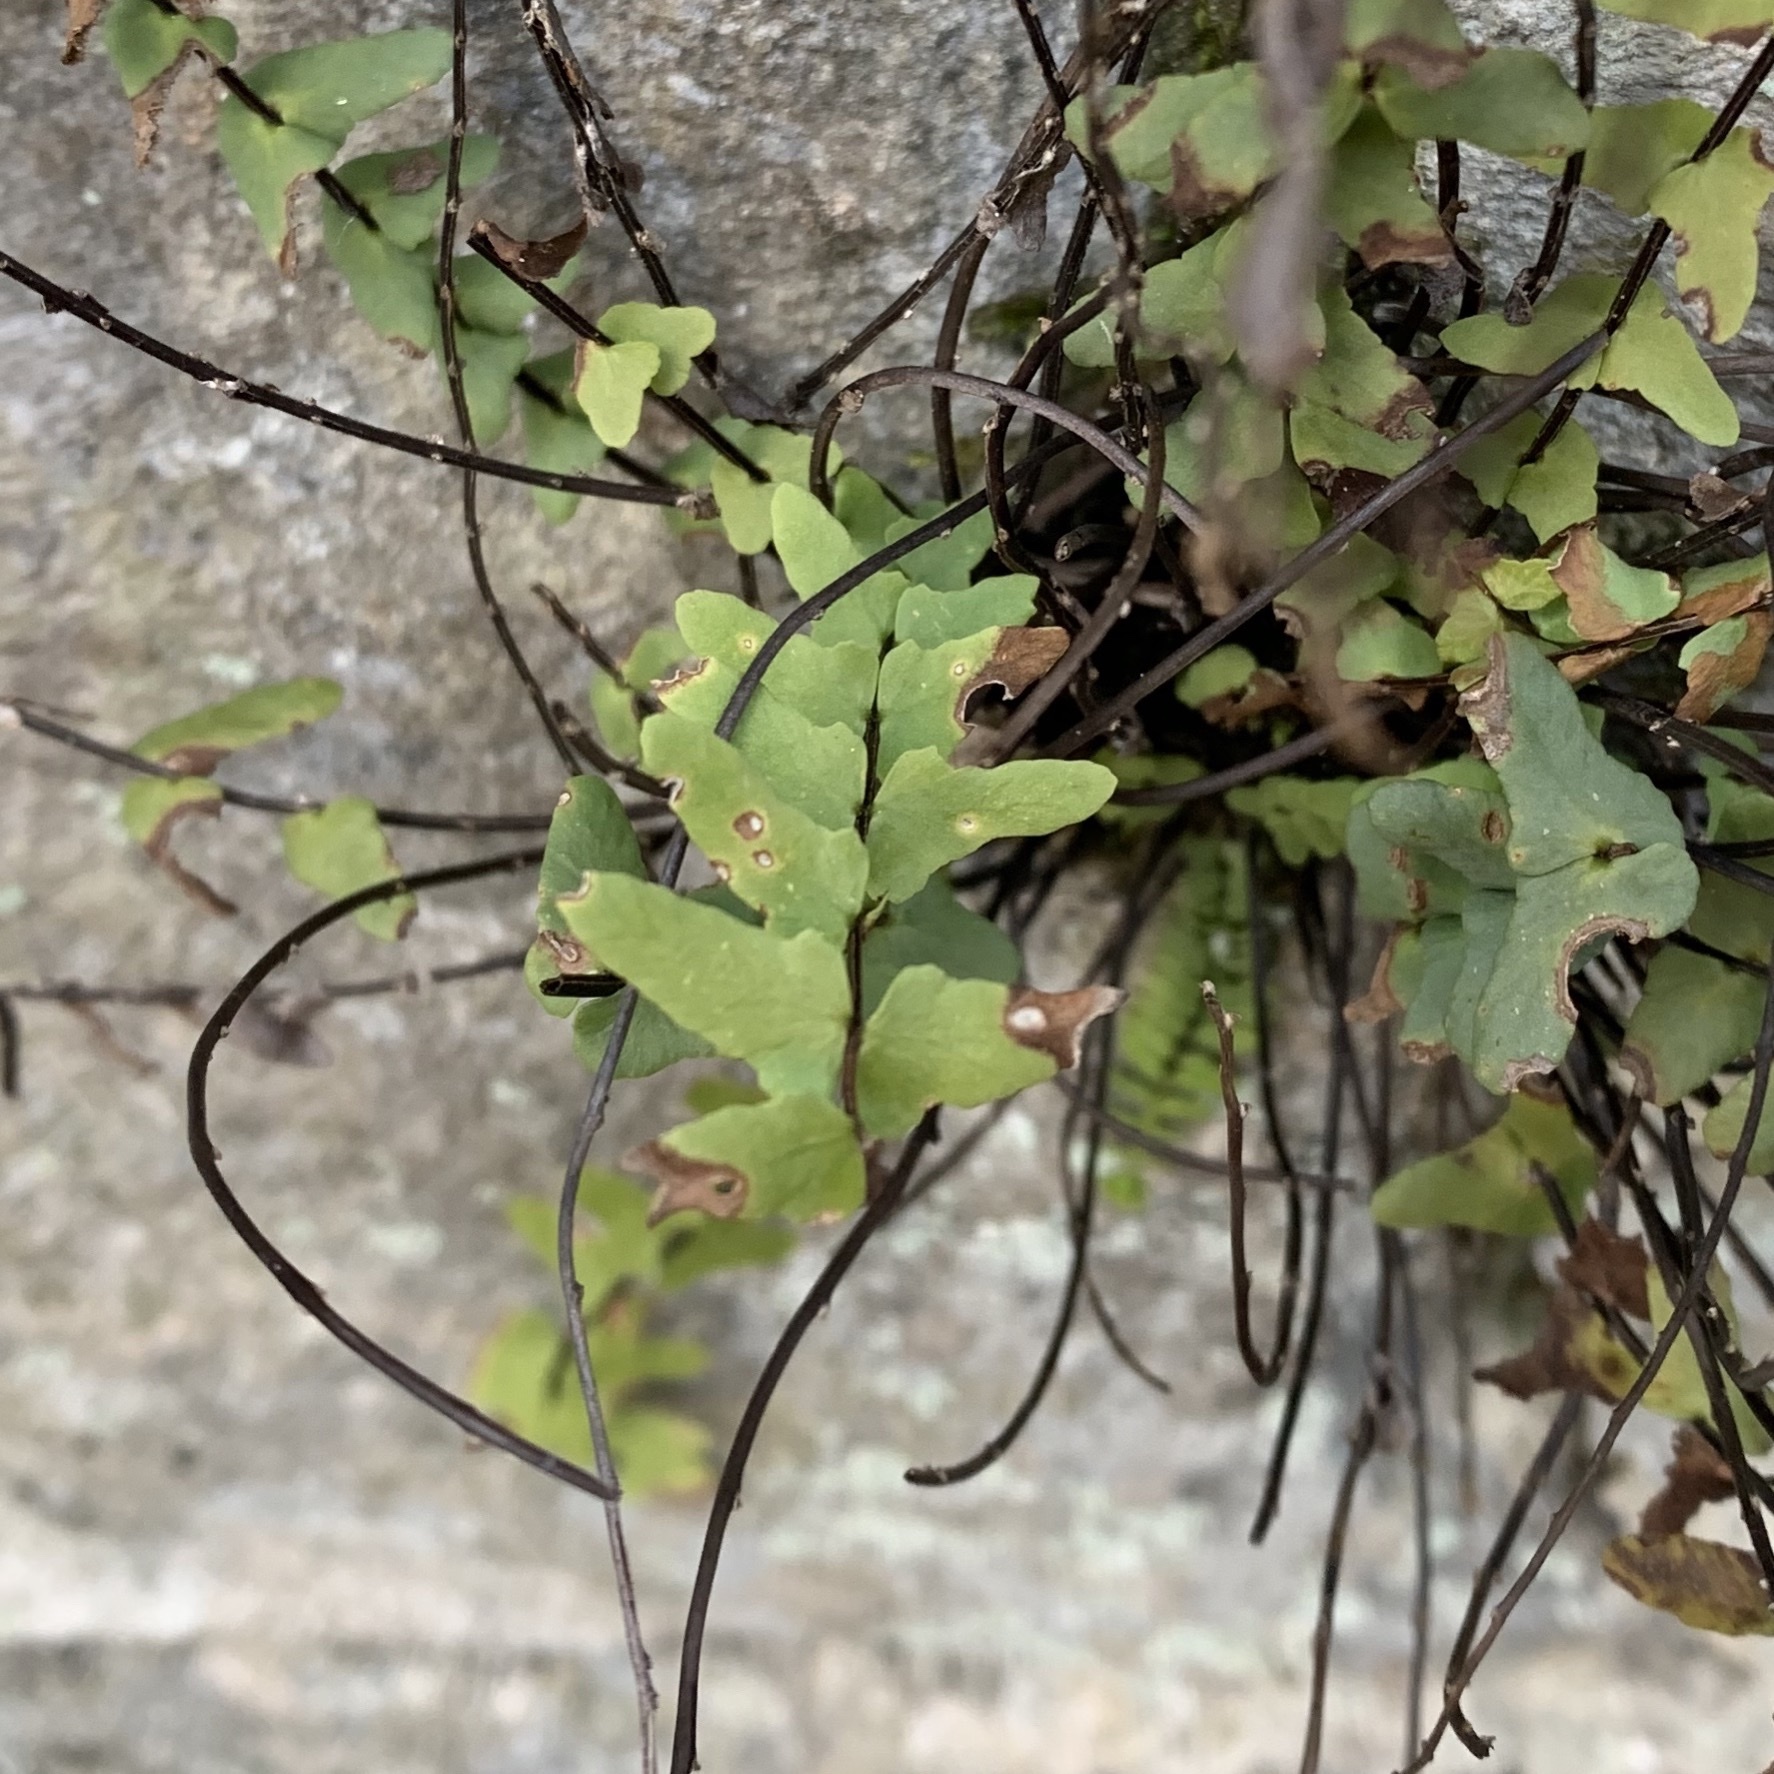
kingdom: Plantae
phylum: Tracheophyta
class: Polypodiopsida
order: Polypodiales
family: Aspleniaceae
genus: Asplenium
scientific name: Asplenium resiliens
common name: Blackstem spleenwort
